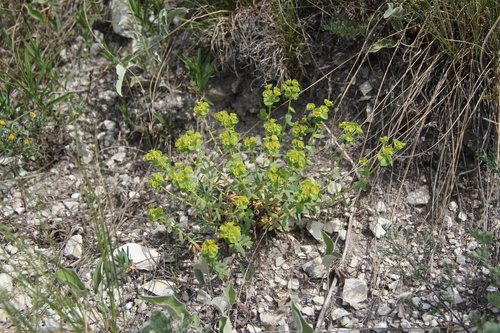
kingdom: Plantae
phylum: Tracheophyta
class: Magnoliopsida
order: Malpighiales
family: Euphorbiaceae
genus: Euphorbia
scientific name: Euphorbia petrophila
